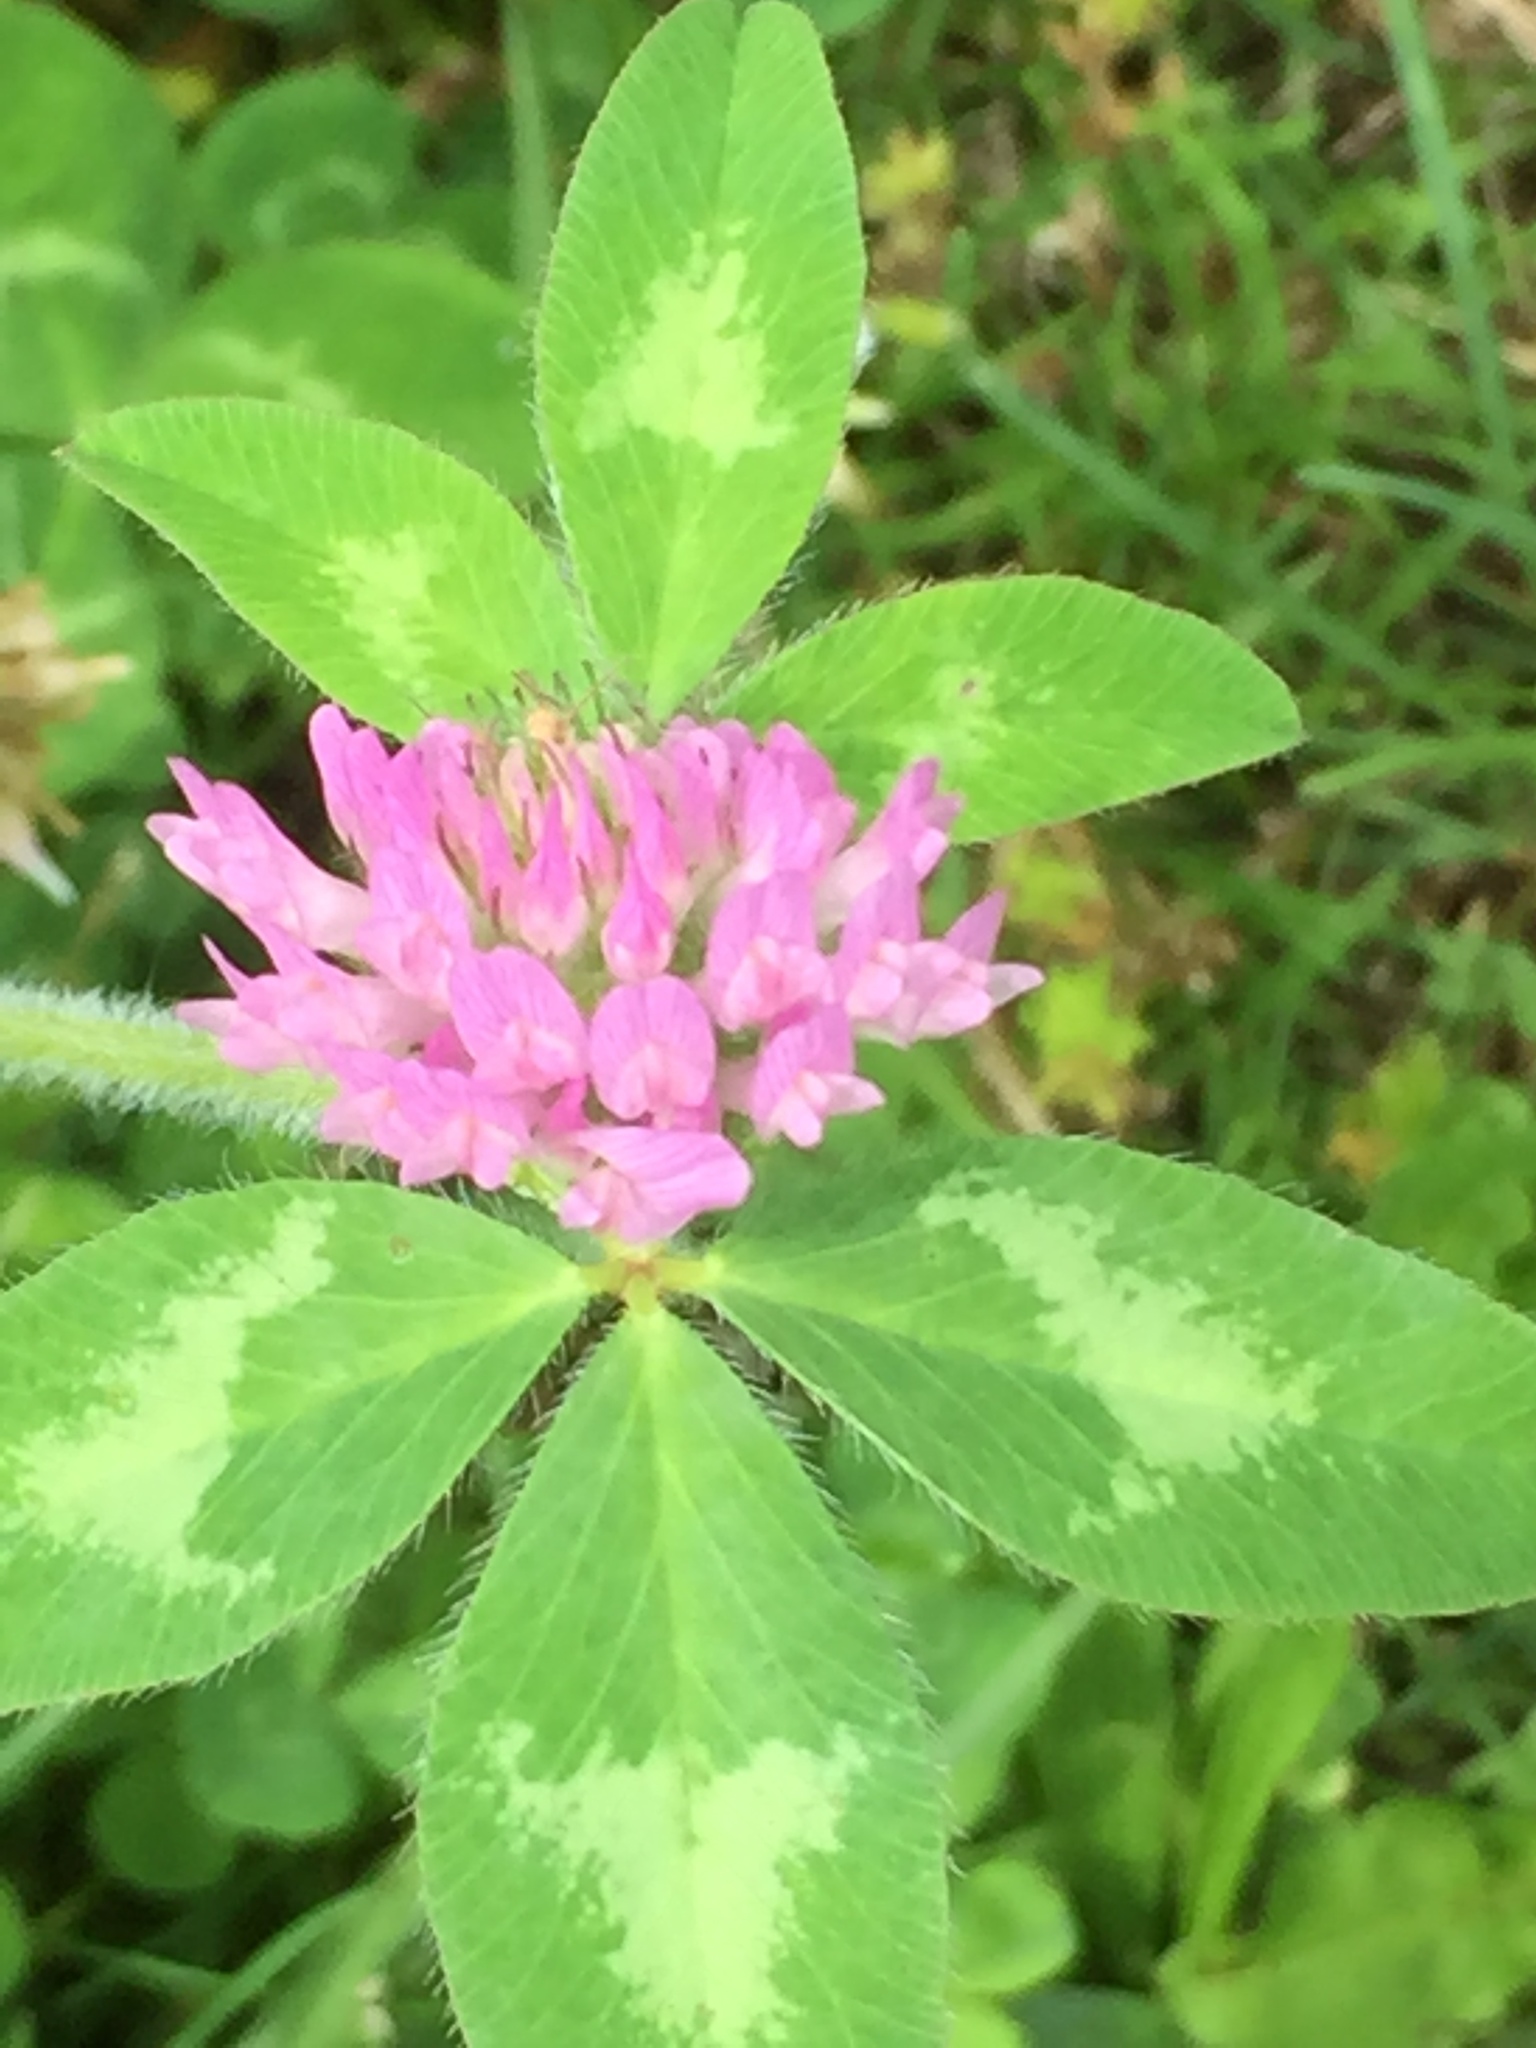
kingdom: Plantae
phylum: Tracheophyta
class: Magnoliopsida
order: Fabales
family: Fabaceae
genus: Trifolium
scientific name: Trifolium pratense
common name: Red clover
